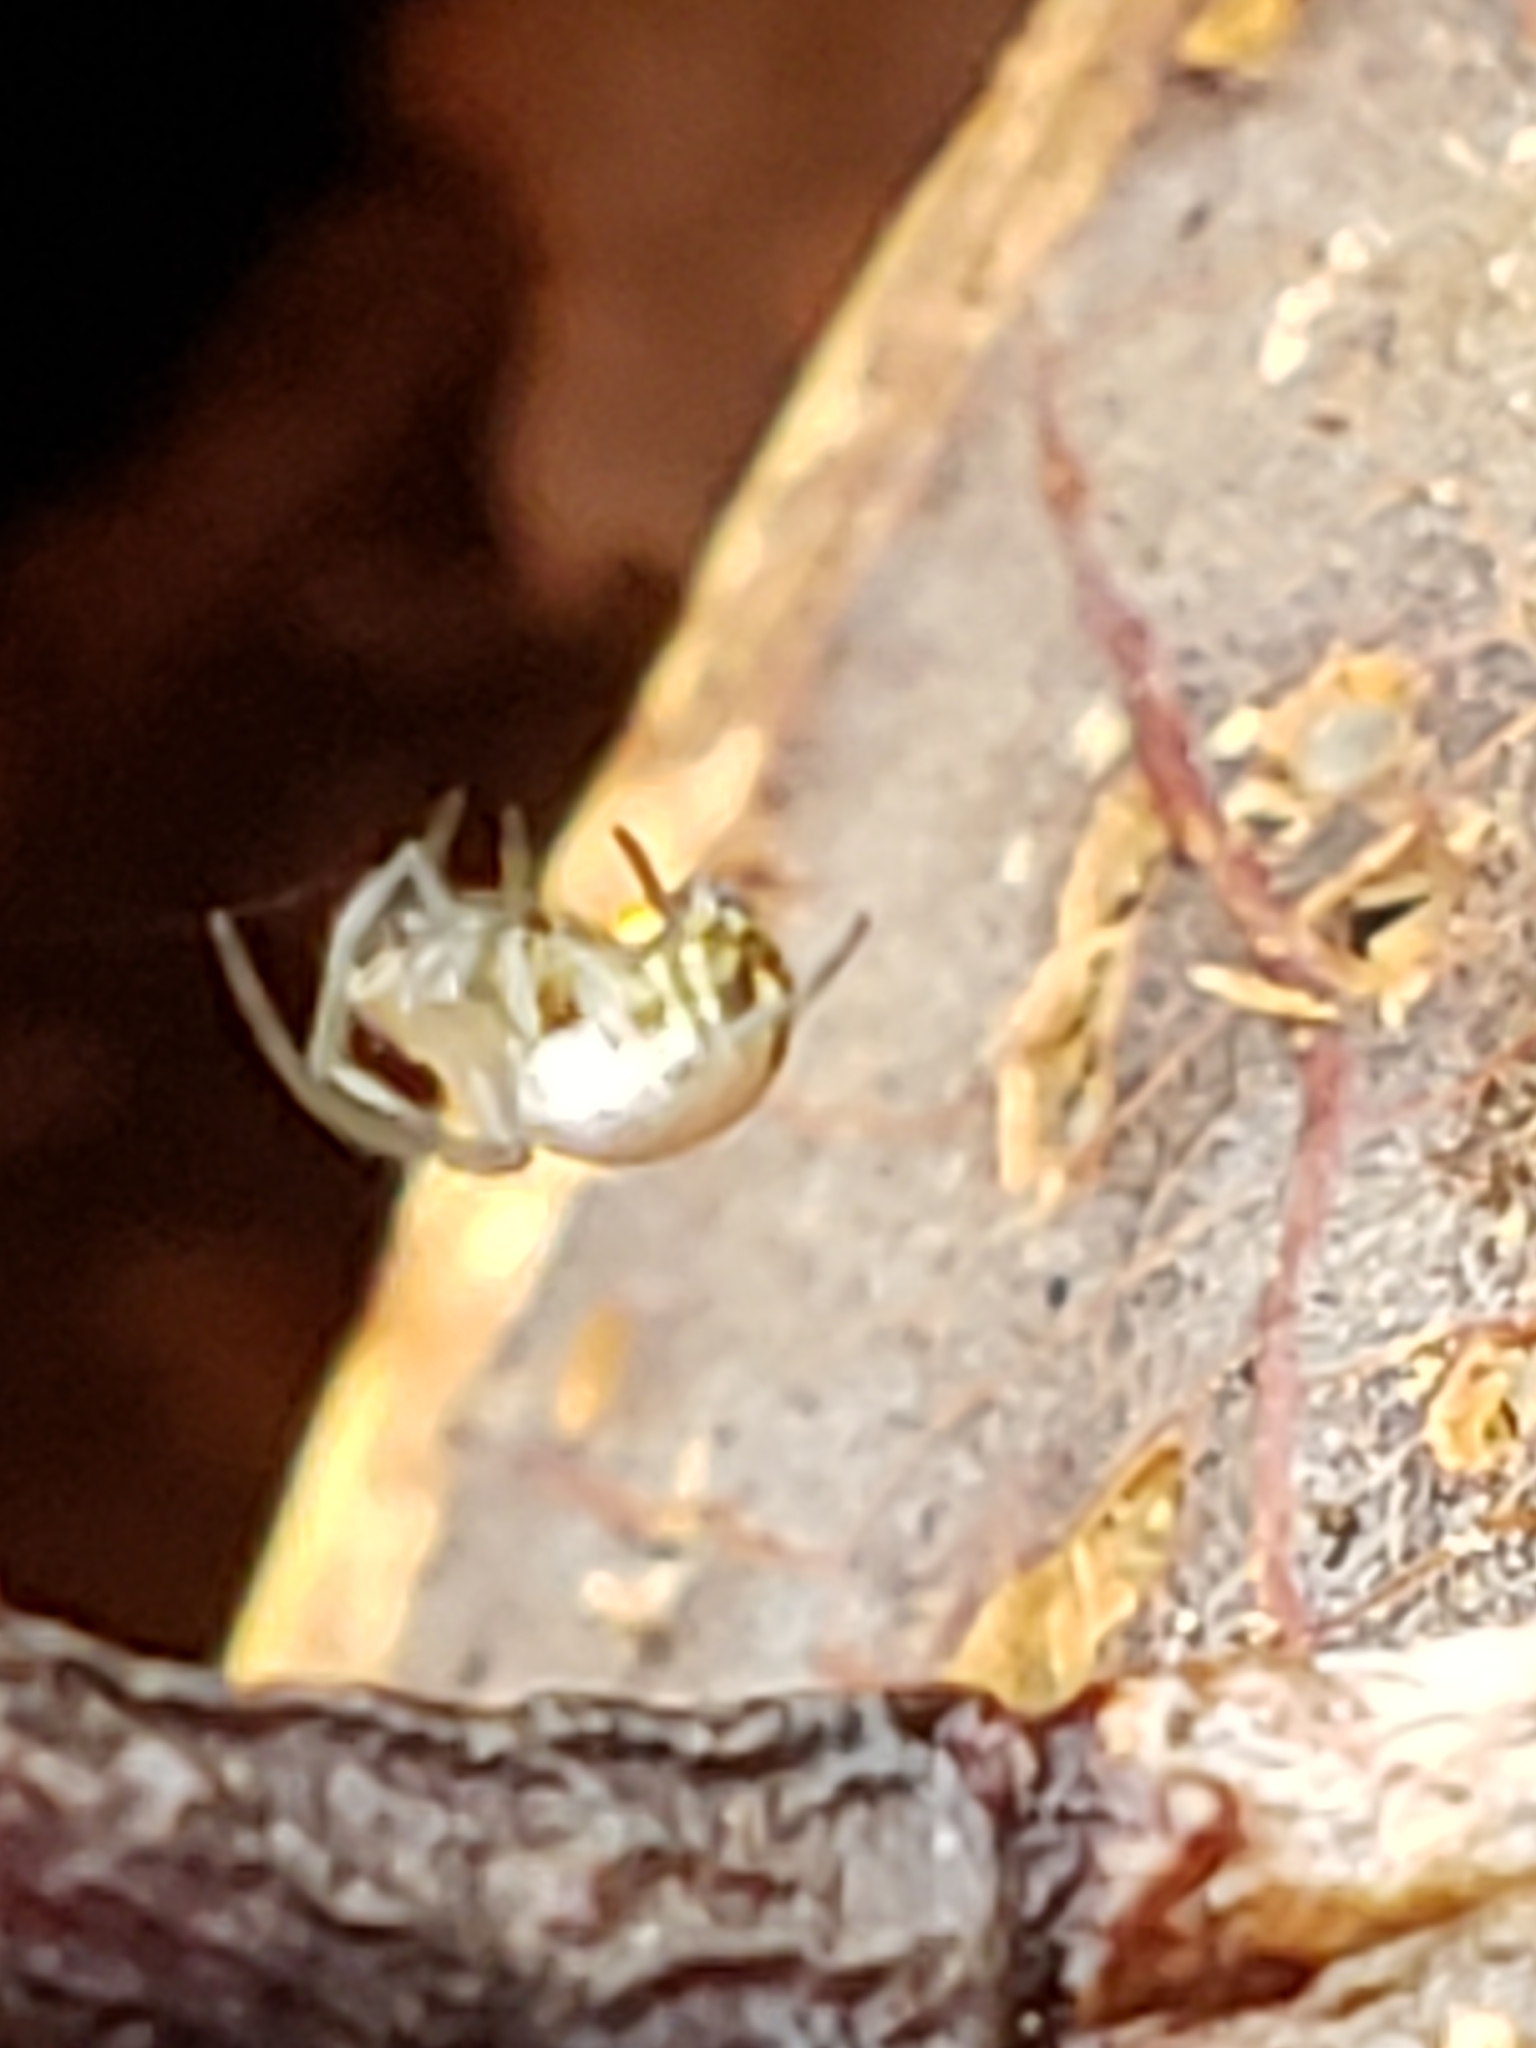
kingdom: Animalia
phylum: Arthropoda
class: Arachnida
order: Araneae
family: Tetragnathidae
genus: Leucauge
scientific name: Leucauge
